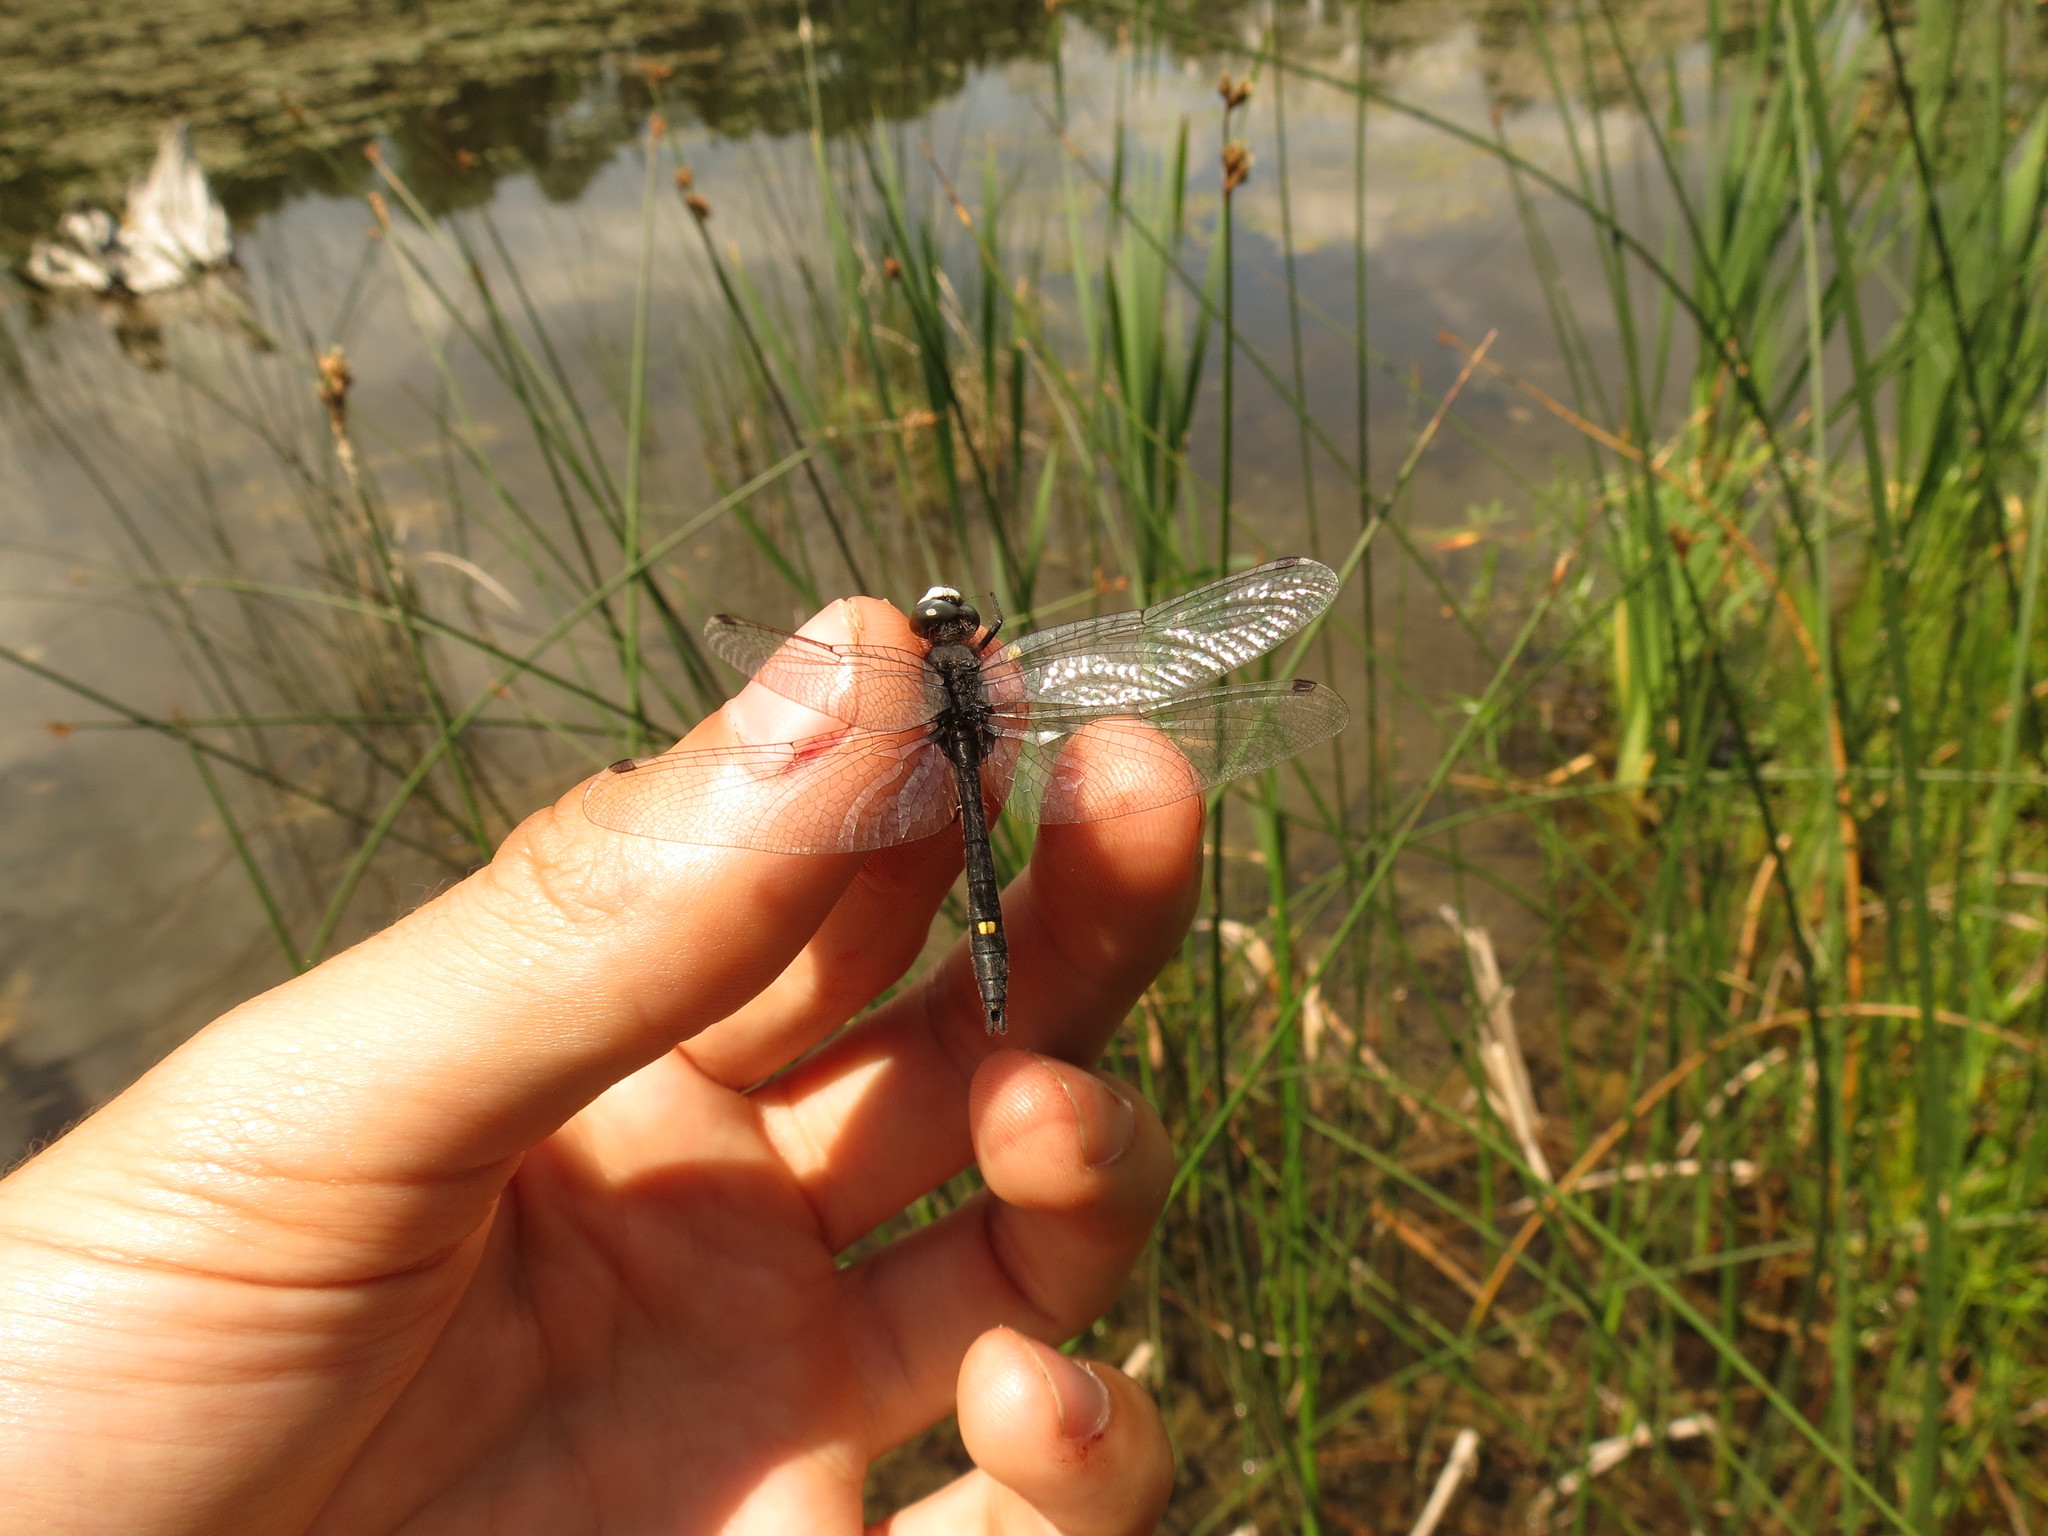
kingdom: Animalia
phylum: Arthropoda
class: Insecta
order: Odonata
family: Libellulidae
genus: Leucorrhinia
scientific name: Leucorrhinia intacta
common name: Dot-tailed whiteface
